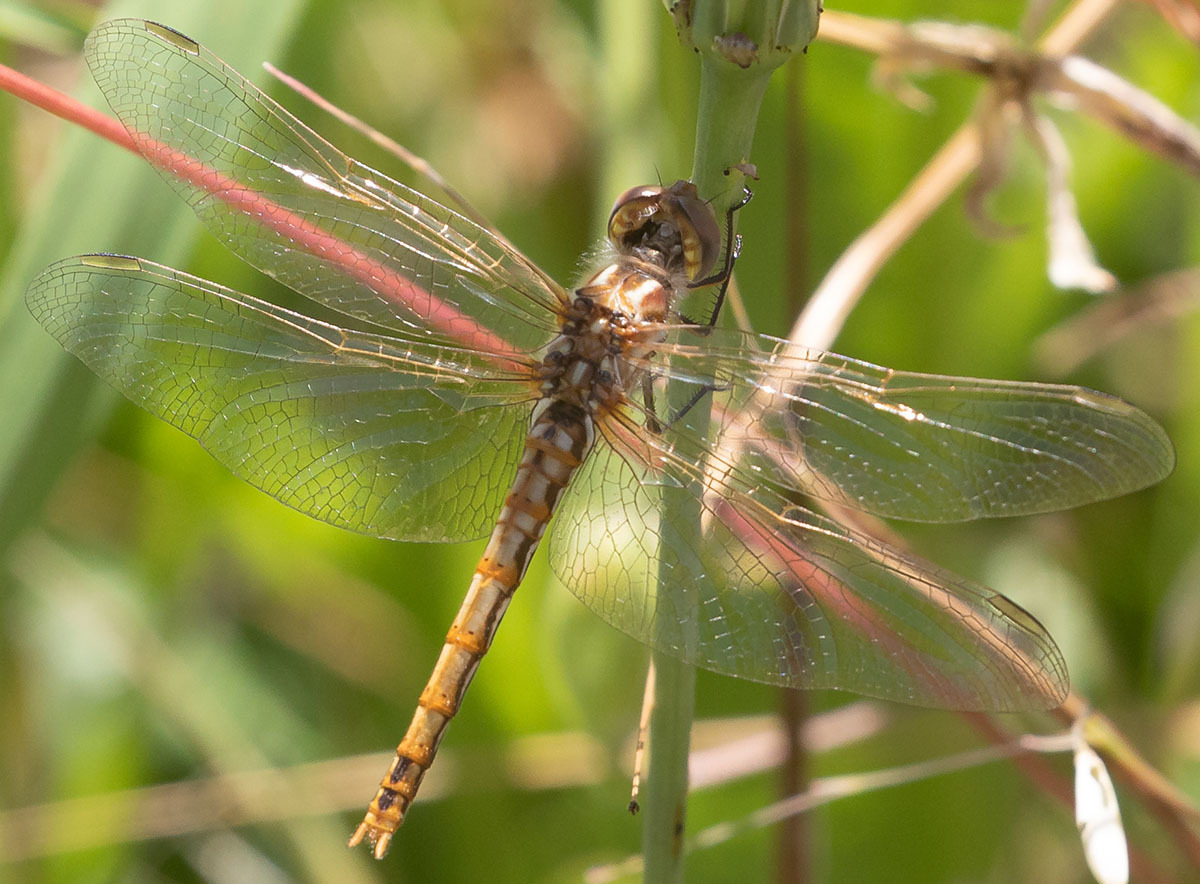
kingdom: Animalia
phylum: Arthropoda
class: Insecta
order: Odonata
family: Libellulidae
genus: Sympetrum
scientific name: Sympetrum corruptum
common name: Variegated meadowhawk
